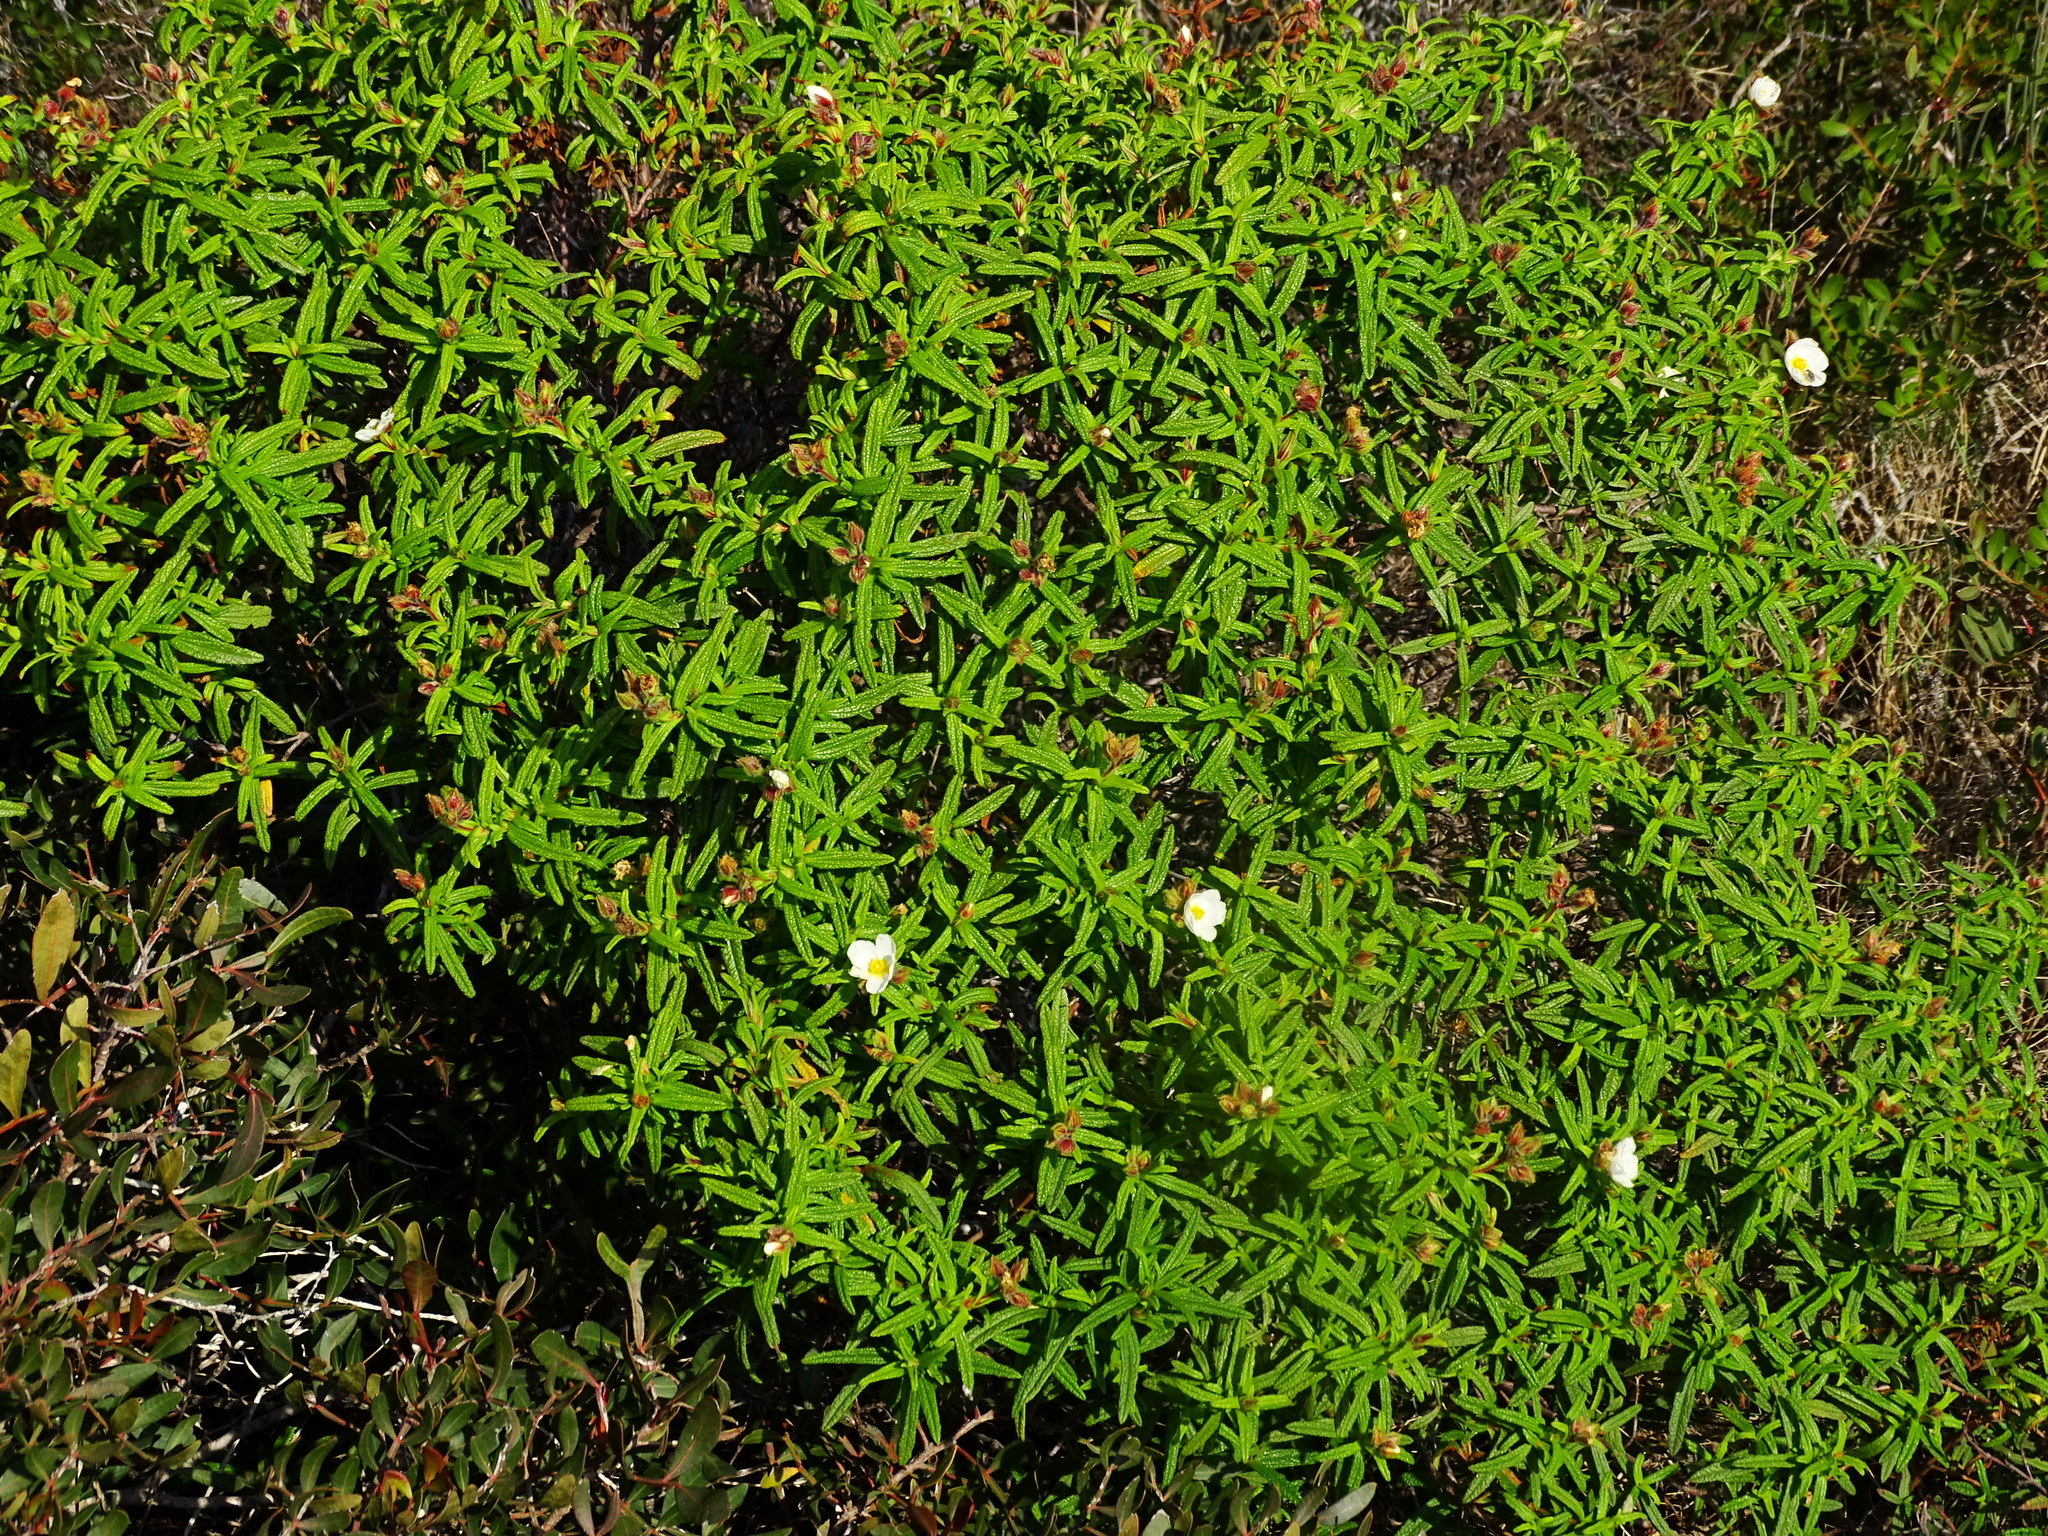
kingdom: Plantae
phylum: Tracheophyta
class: Magnoliopsida
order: Malvales
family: Cistaceae
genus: Cistus
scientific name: Cistus monspeliensis
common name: Montpelier cistus
